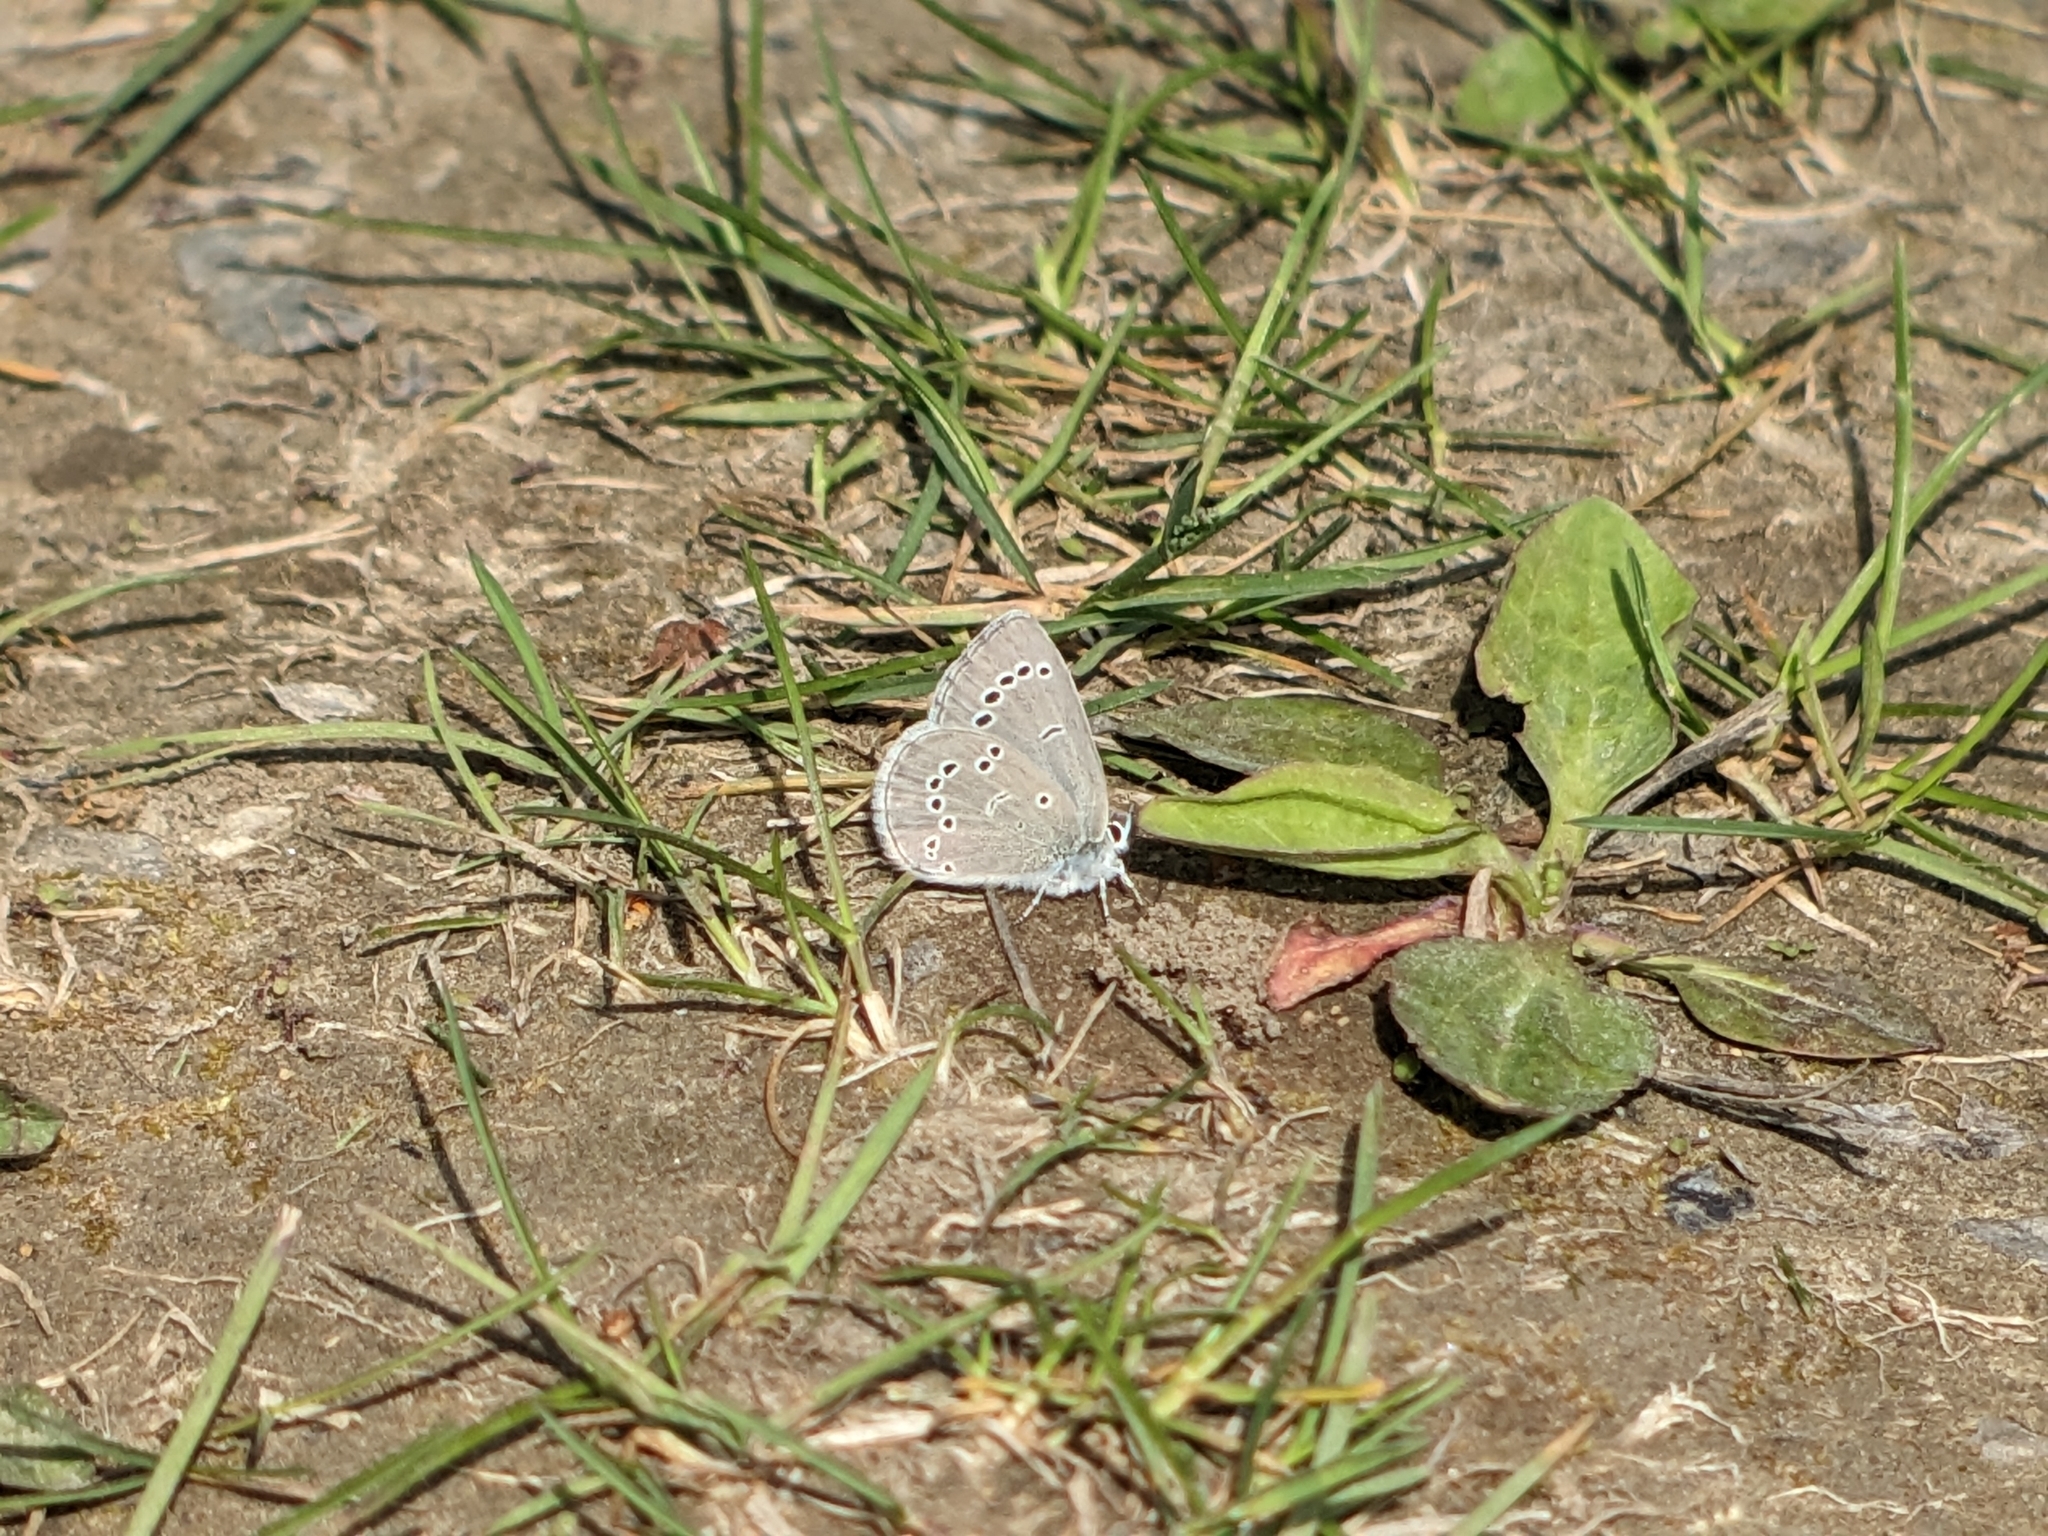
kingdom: Animalia
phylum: Arthropoda
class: Insecta
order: Lepidoptera
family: Lycaenidae
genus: Glaucopsyche
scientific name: Glaucopsyche lygdamus
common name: Silvery blue
